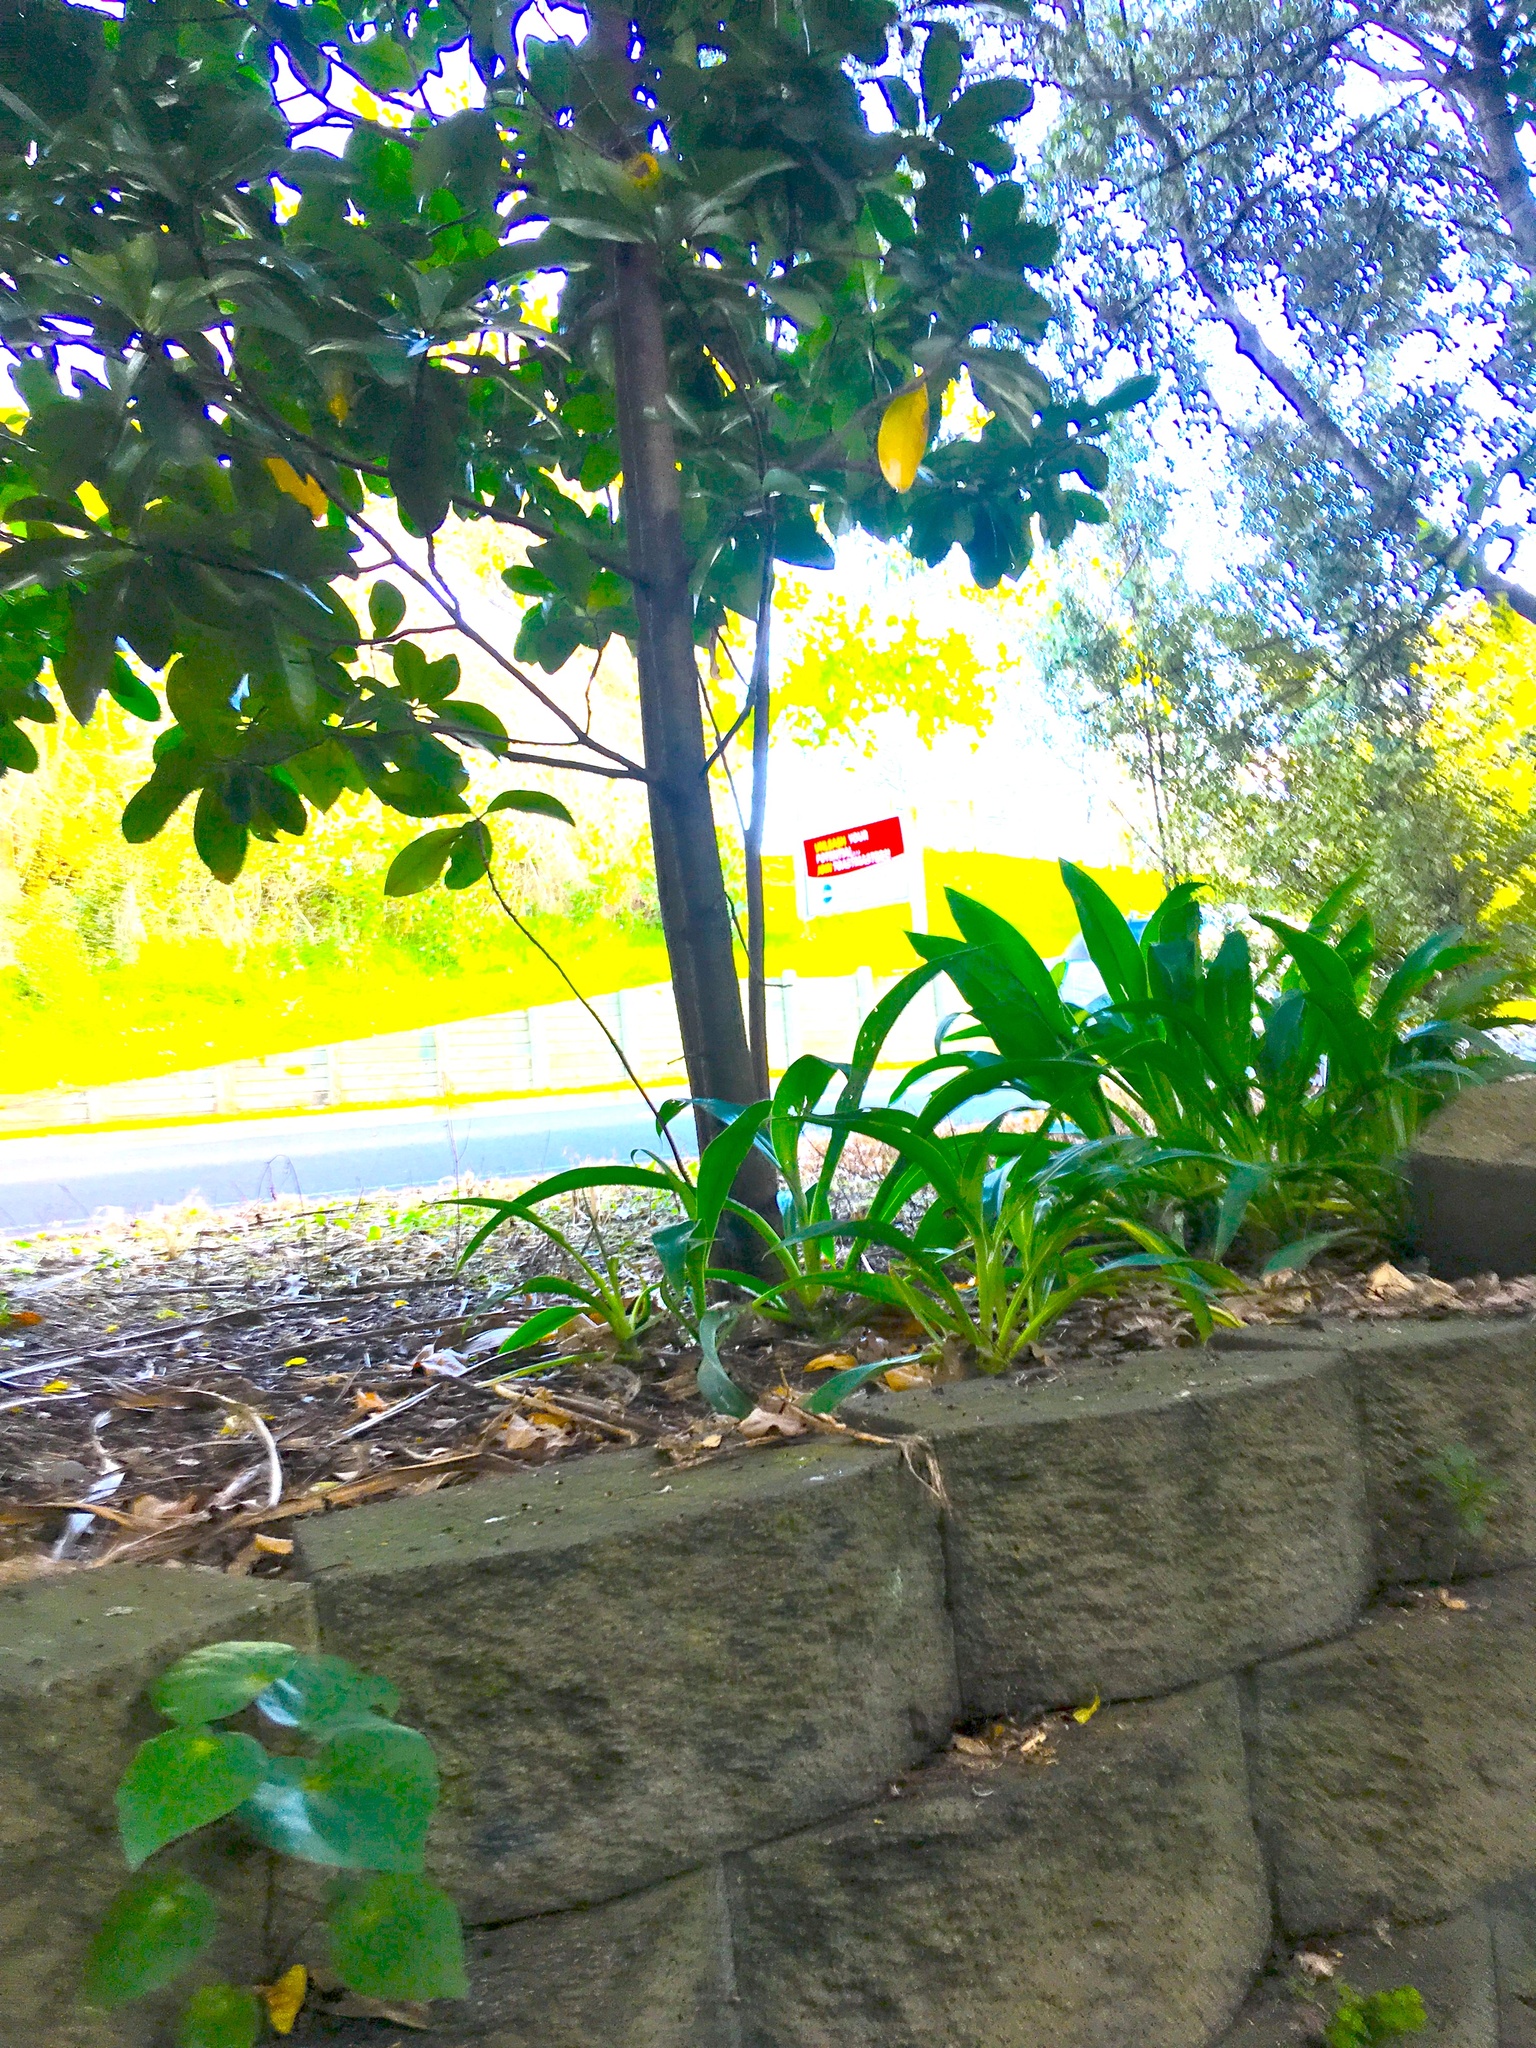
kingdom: Plantae
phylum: Tracheophyta
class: Magnoliopsida
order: Cucurbitales
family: Corynocarpaceae
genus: Corynocarpus
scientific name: Corynocarpus laevigatus
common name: New zealand laurel
